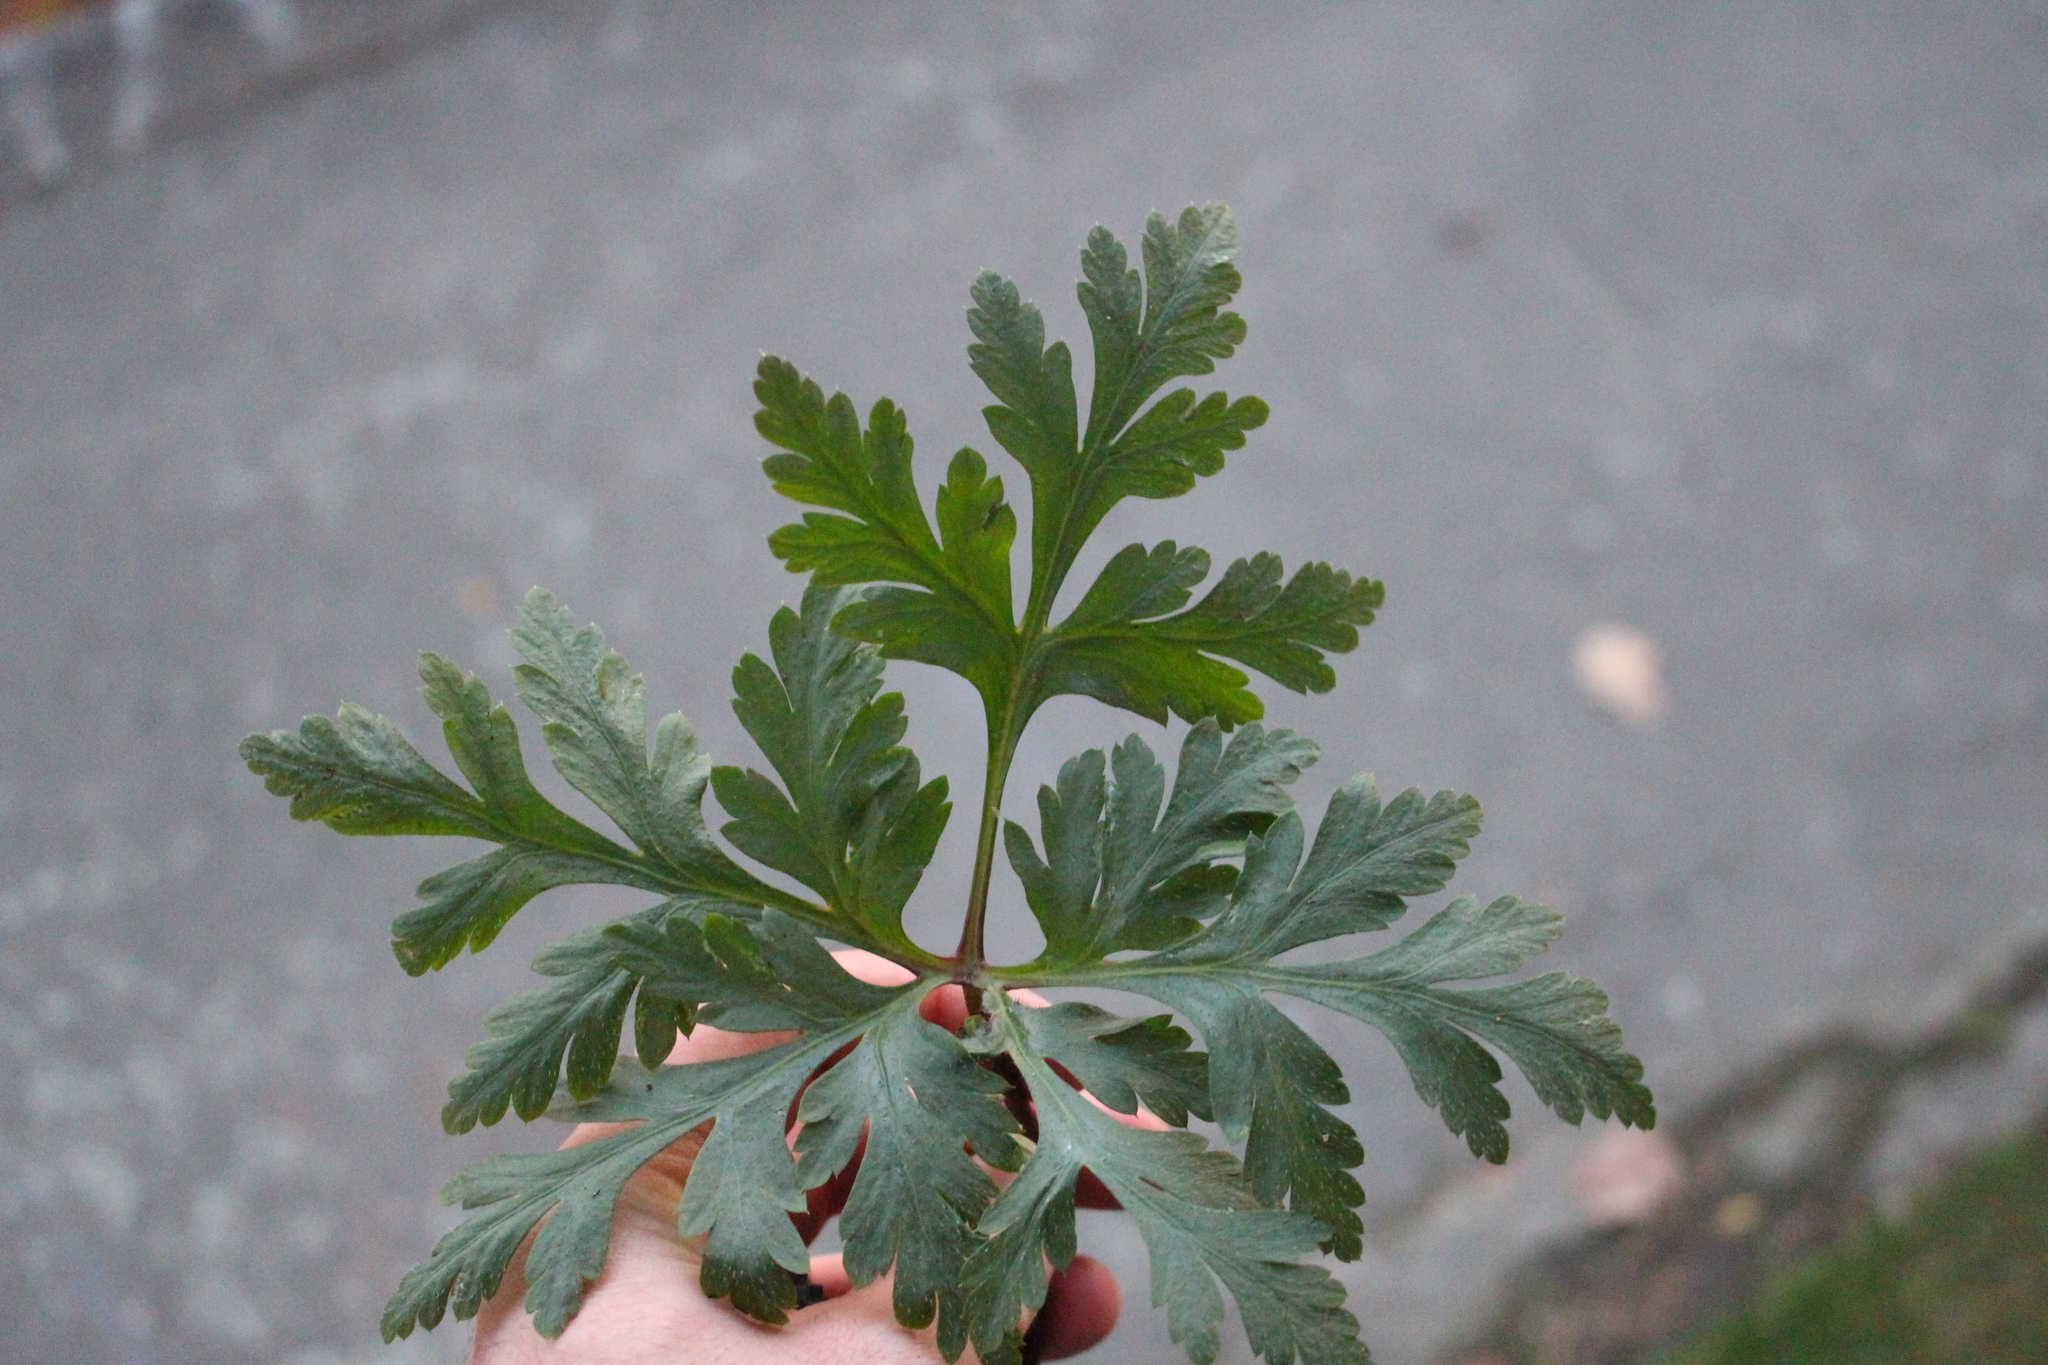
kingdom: Plantae
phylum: Tracheophyta
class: Magnoliopsida
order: Geraniales
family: Geraniaceae
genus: Geranium
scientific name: Geranium yeoi
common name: Greater herb robert
